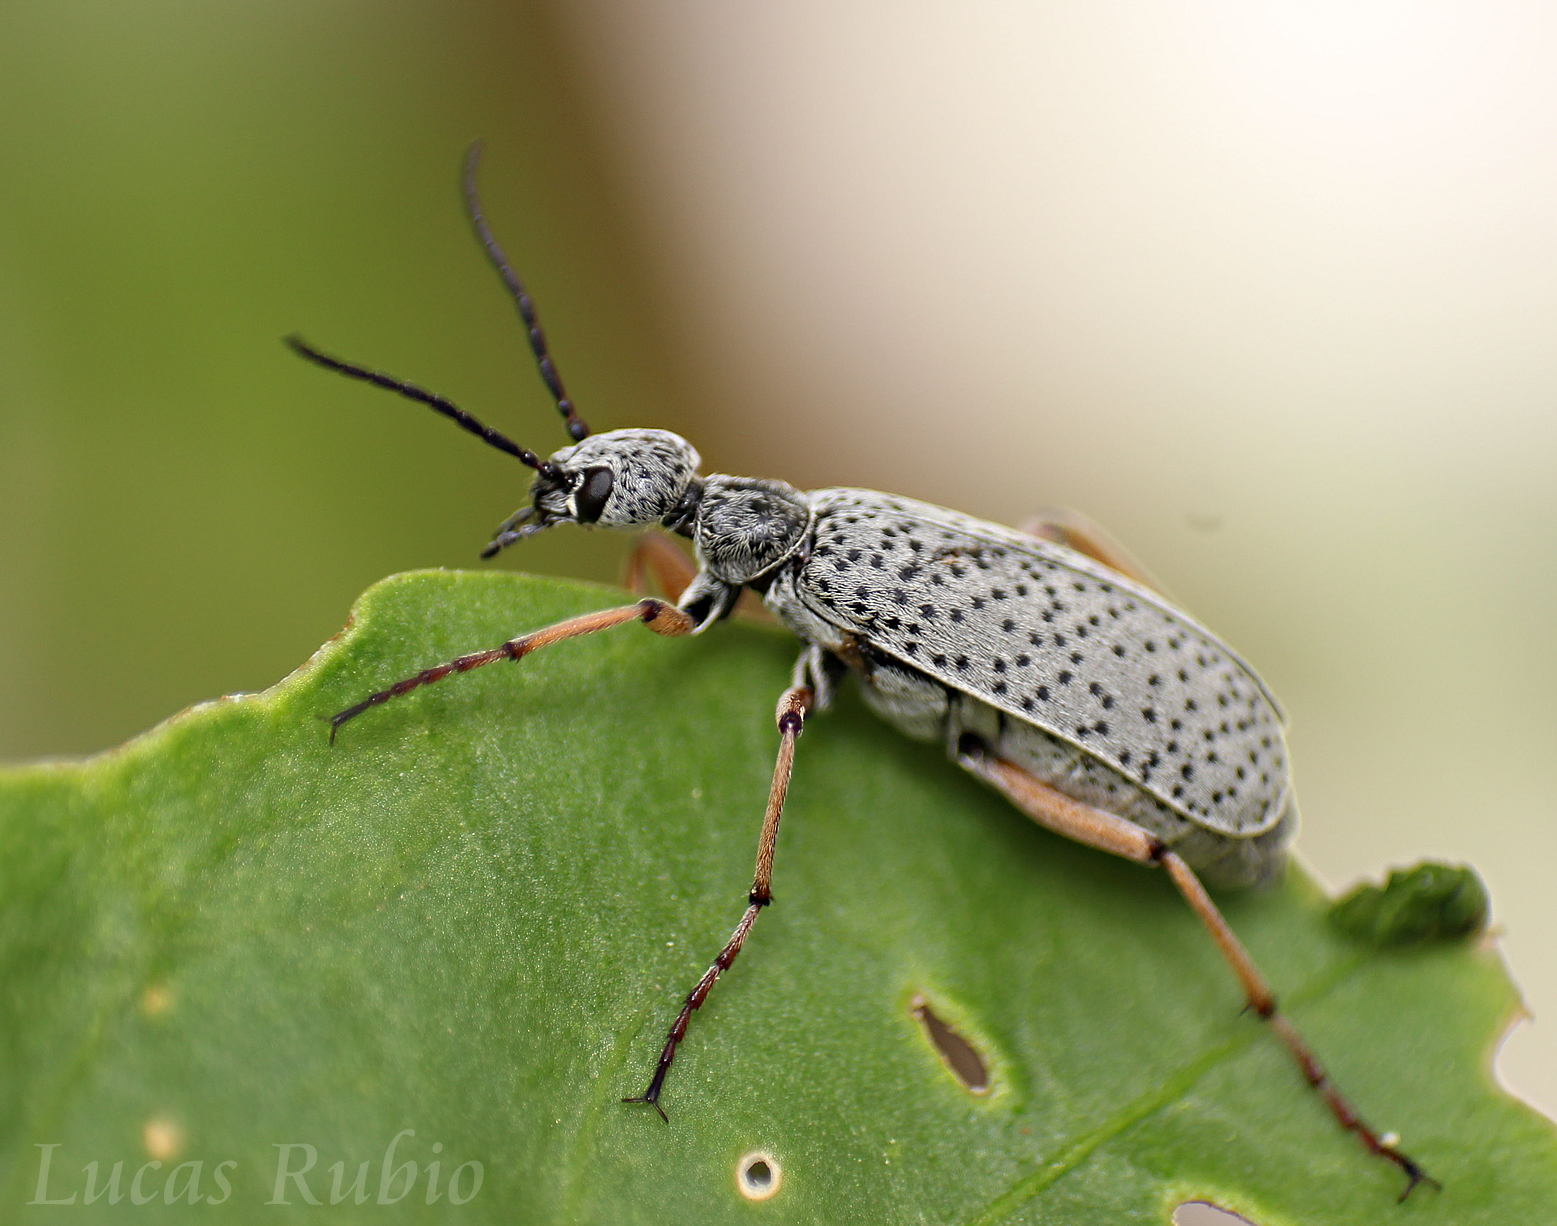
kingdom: Animalia
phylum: Arthropoda
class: Insecta
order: Coleoptera
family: Meloidae
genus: Epicauta
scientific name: Epicauta
